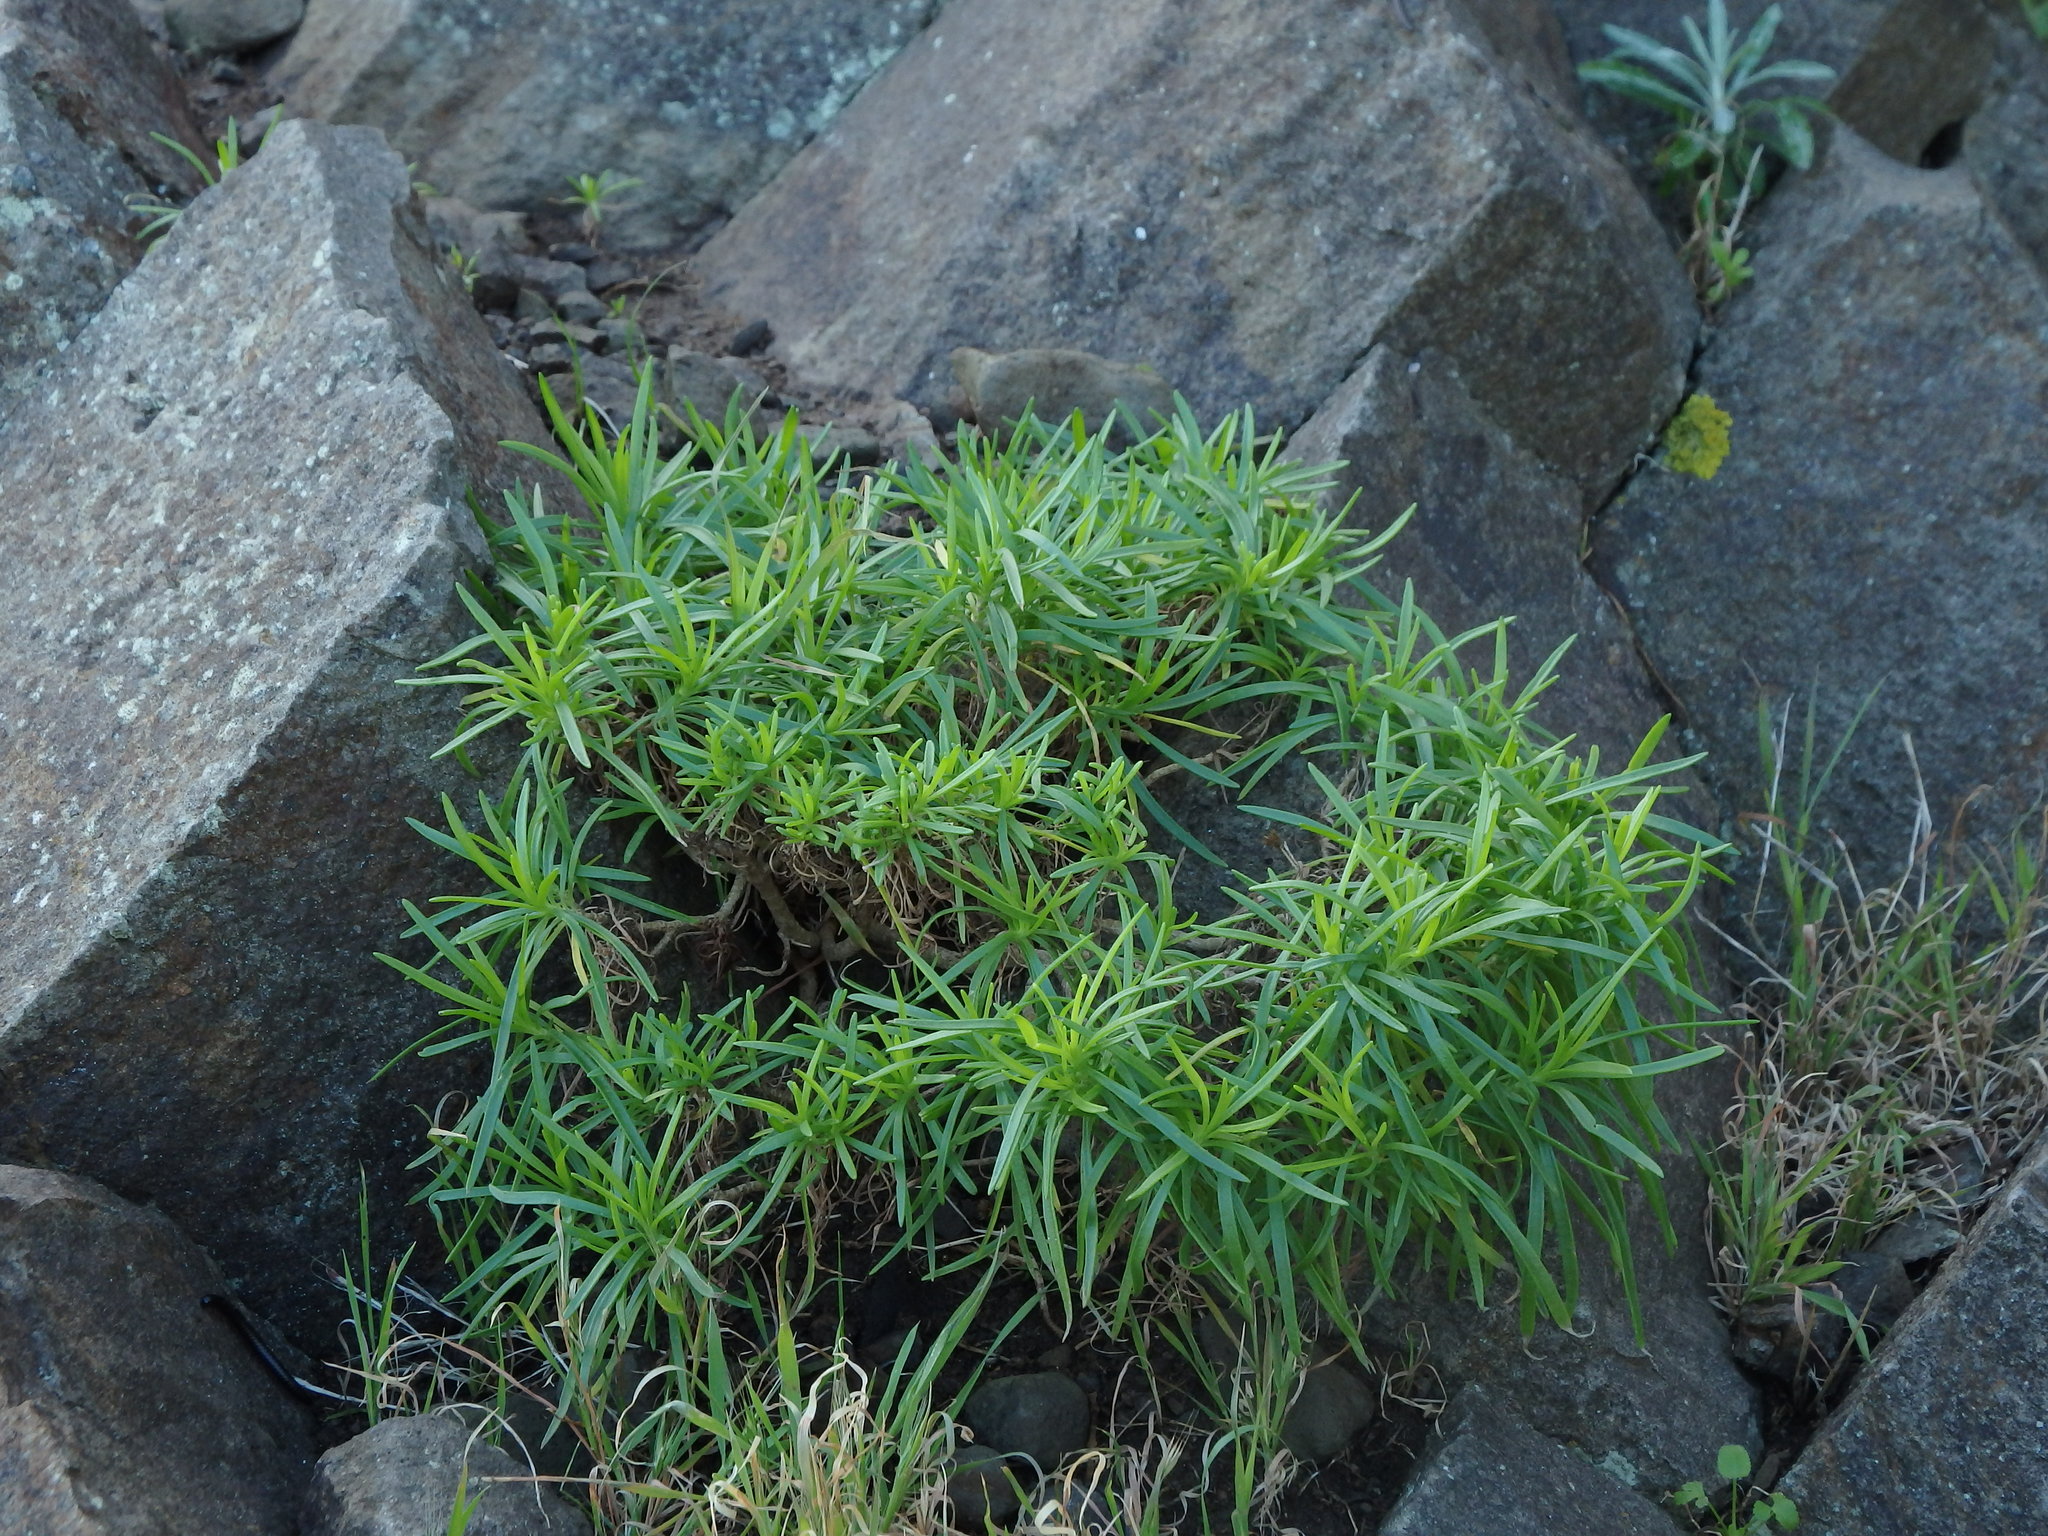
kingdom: Plantae
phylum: Tracheophyta
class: Magnoliopsida
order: Lamiales
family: Plantaginaceae
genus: Plantago
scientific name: Plantago arborescens
